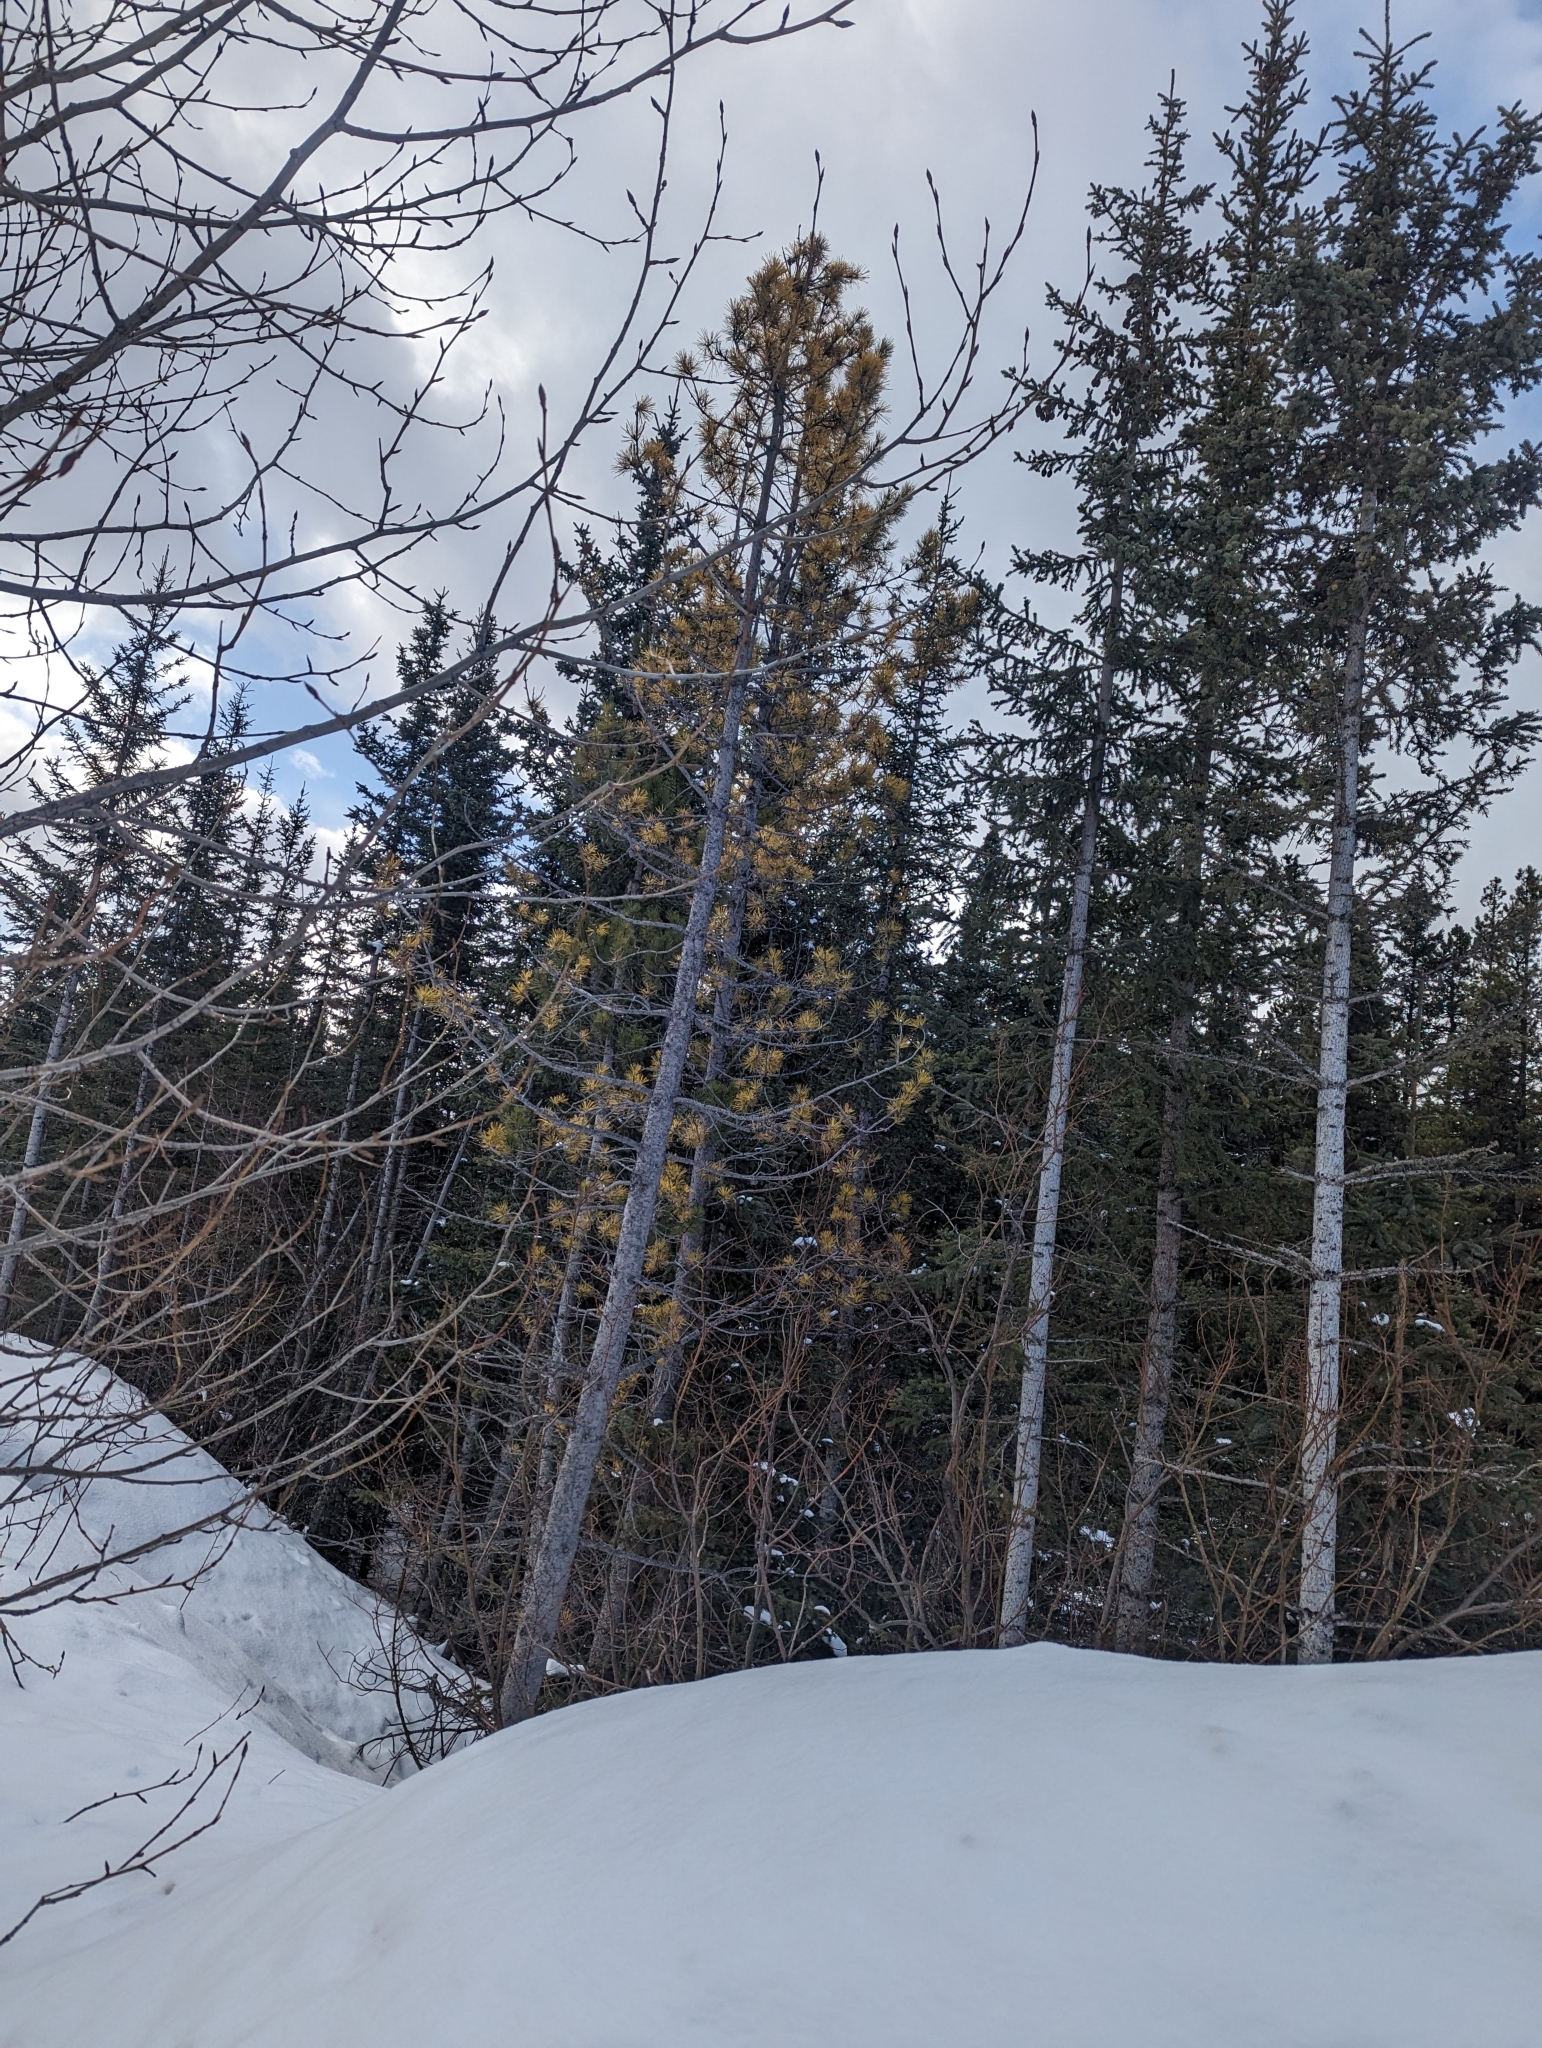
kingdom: Plantae
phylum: Tracheophyta
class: Pinopsida
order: Pinales
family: Pinaceae
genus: Pinus
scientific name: Pinus contorta
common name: Lodgepole pine
